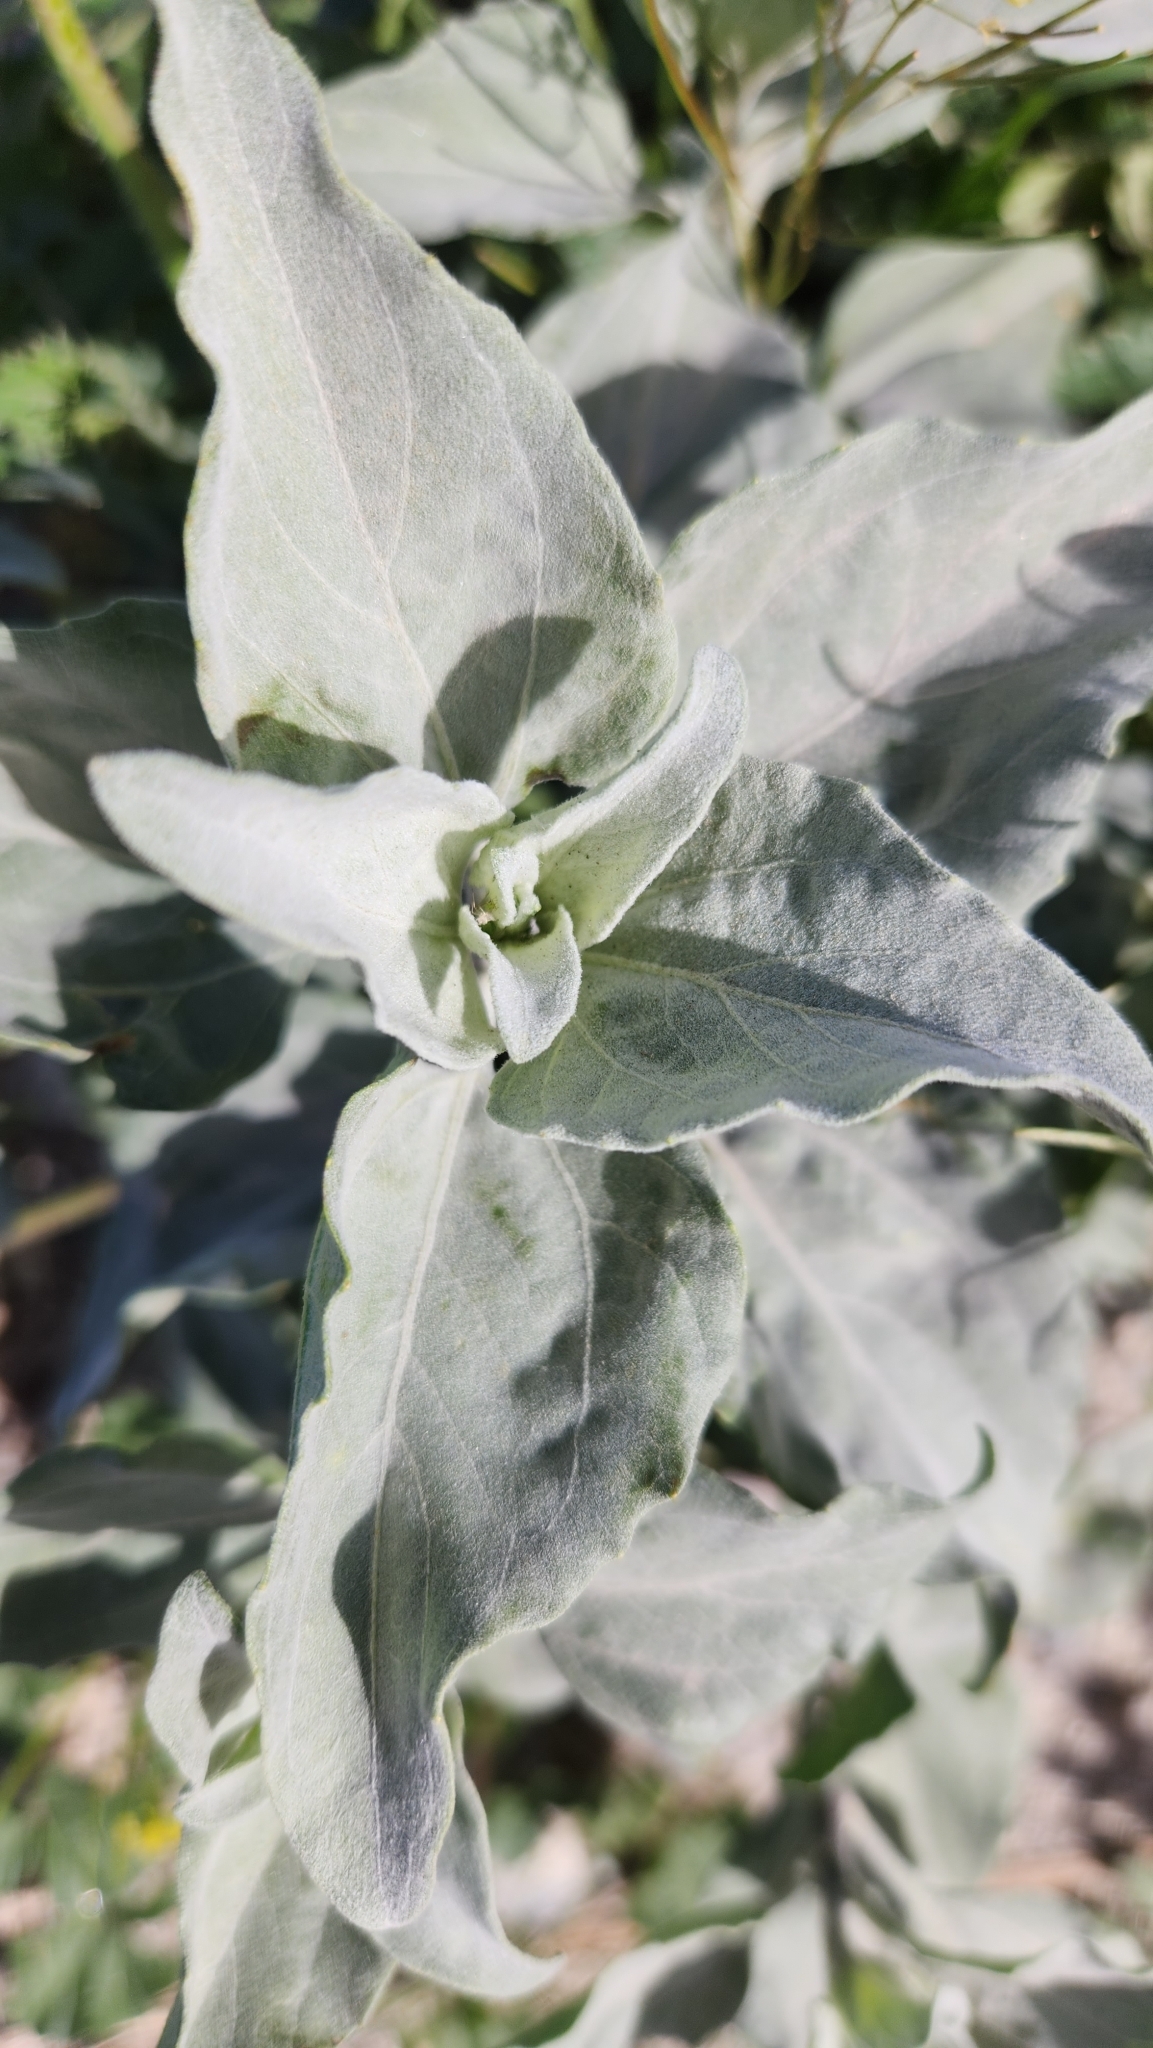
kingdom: Plantae
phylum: Tracheophyta
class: Magnoliopsida
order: Asterales
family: Asteraceae
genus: Encelia
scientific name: Encelia farinosa
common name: Brittlebush
